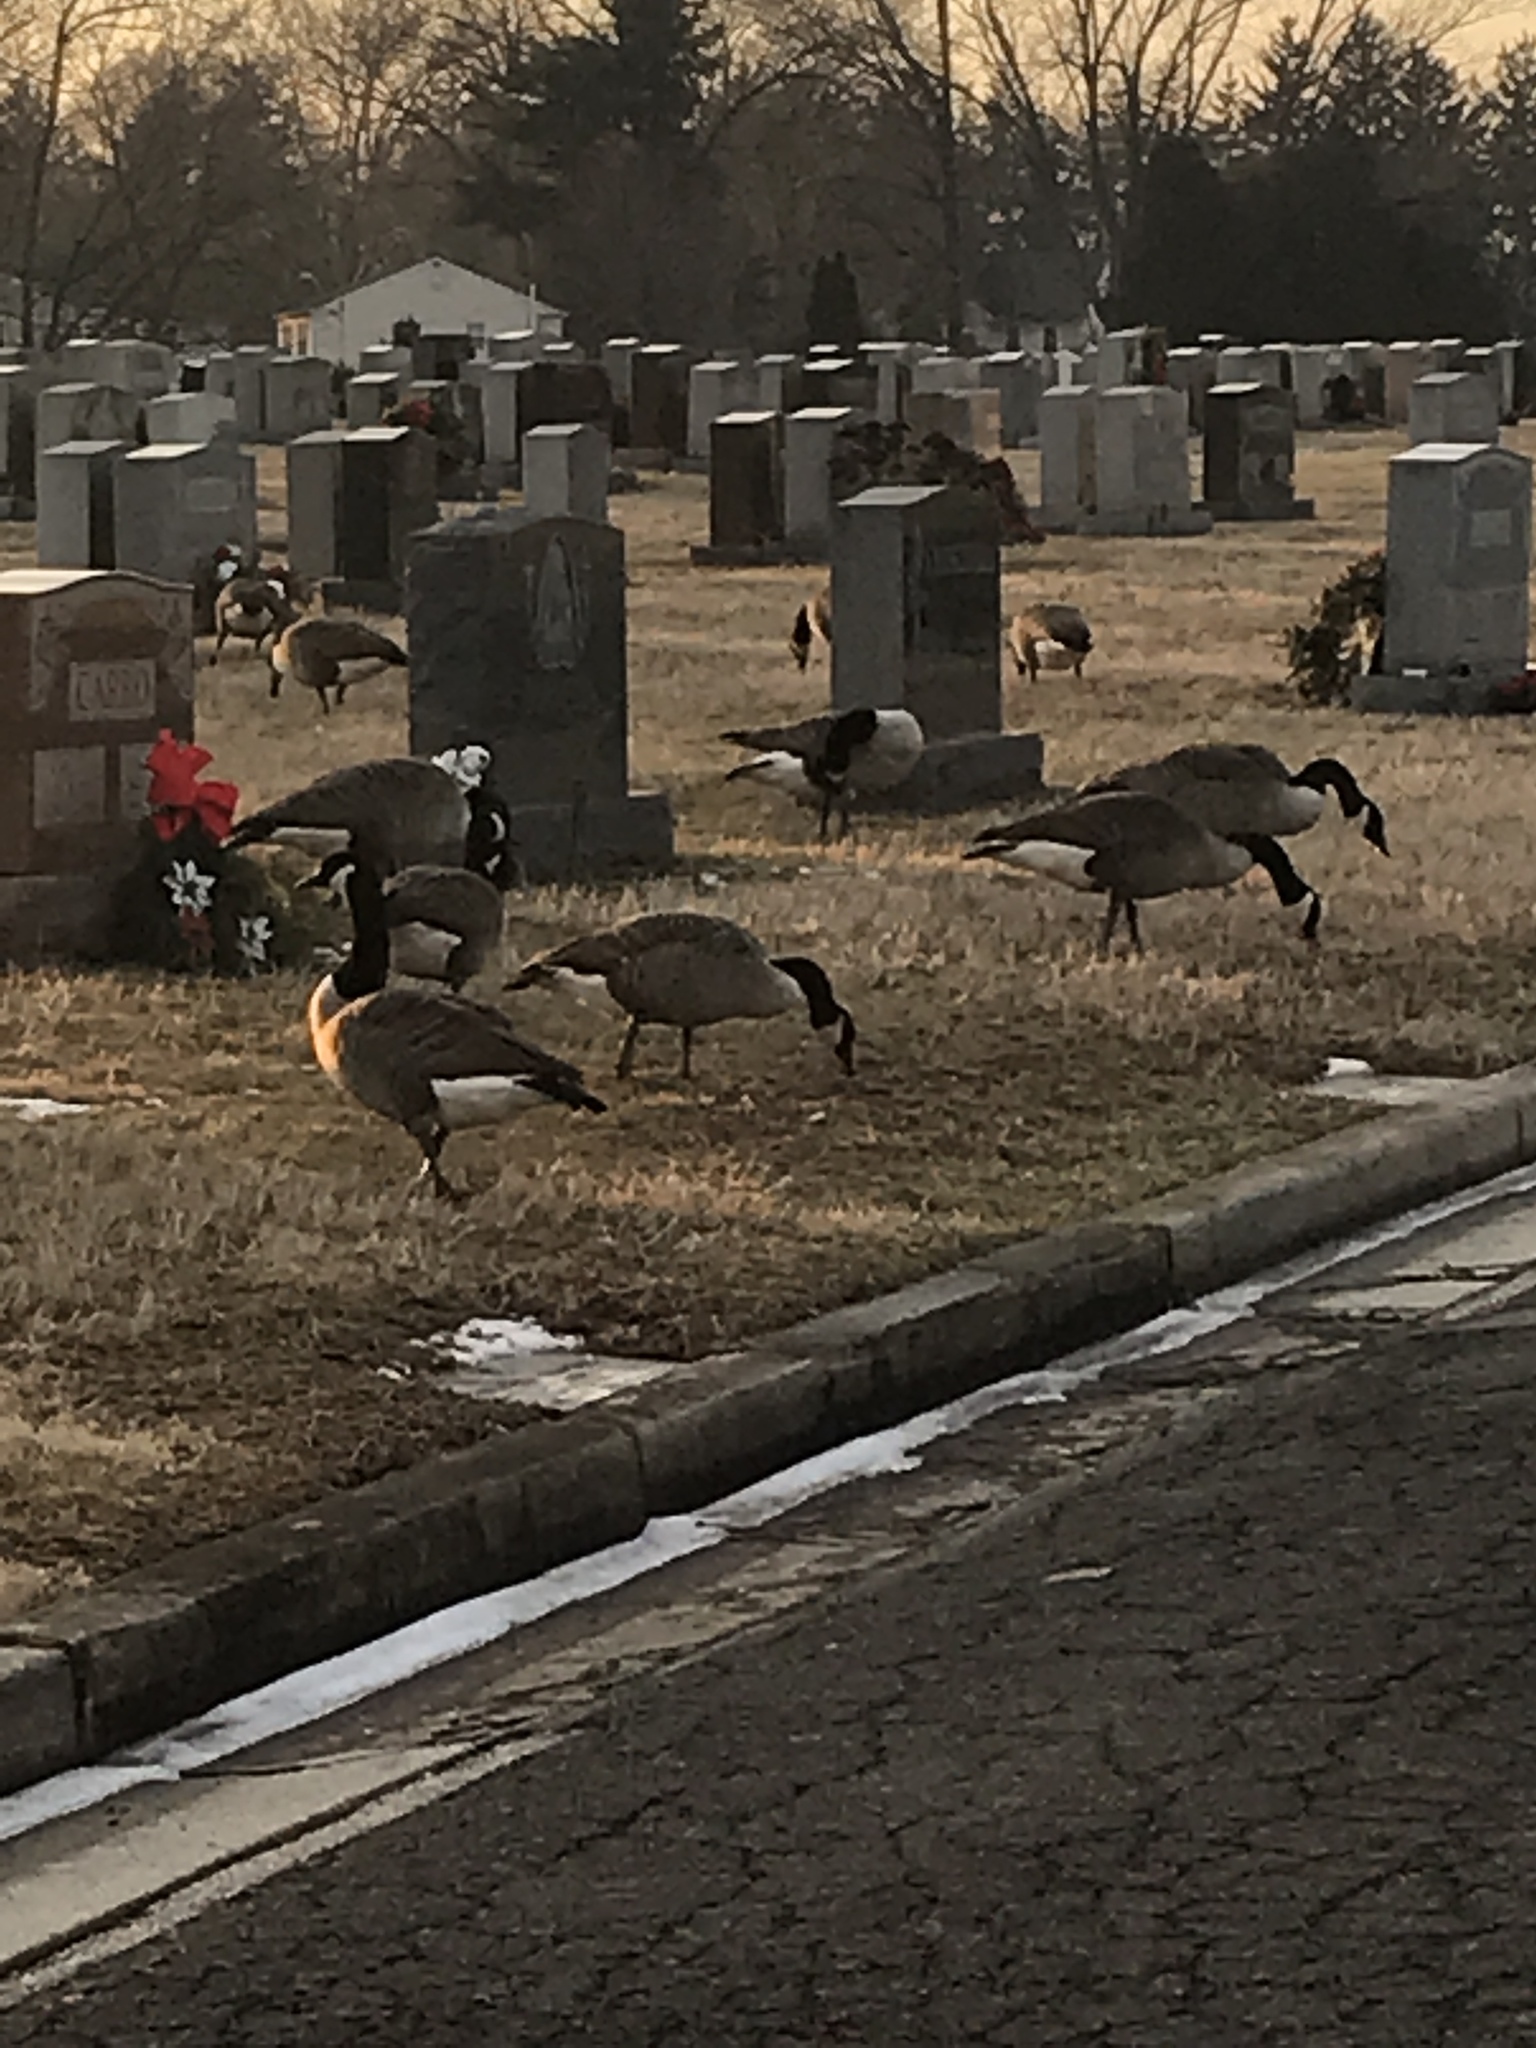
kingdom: Animalia
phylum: Chordata
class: Aves
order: Anseriformes
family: Anatidae
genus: Branta
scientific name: Branta canadensis
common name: Canada goose
